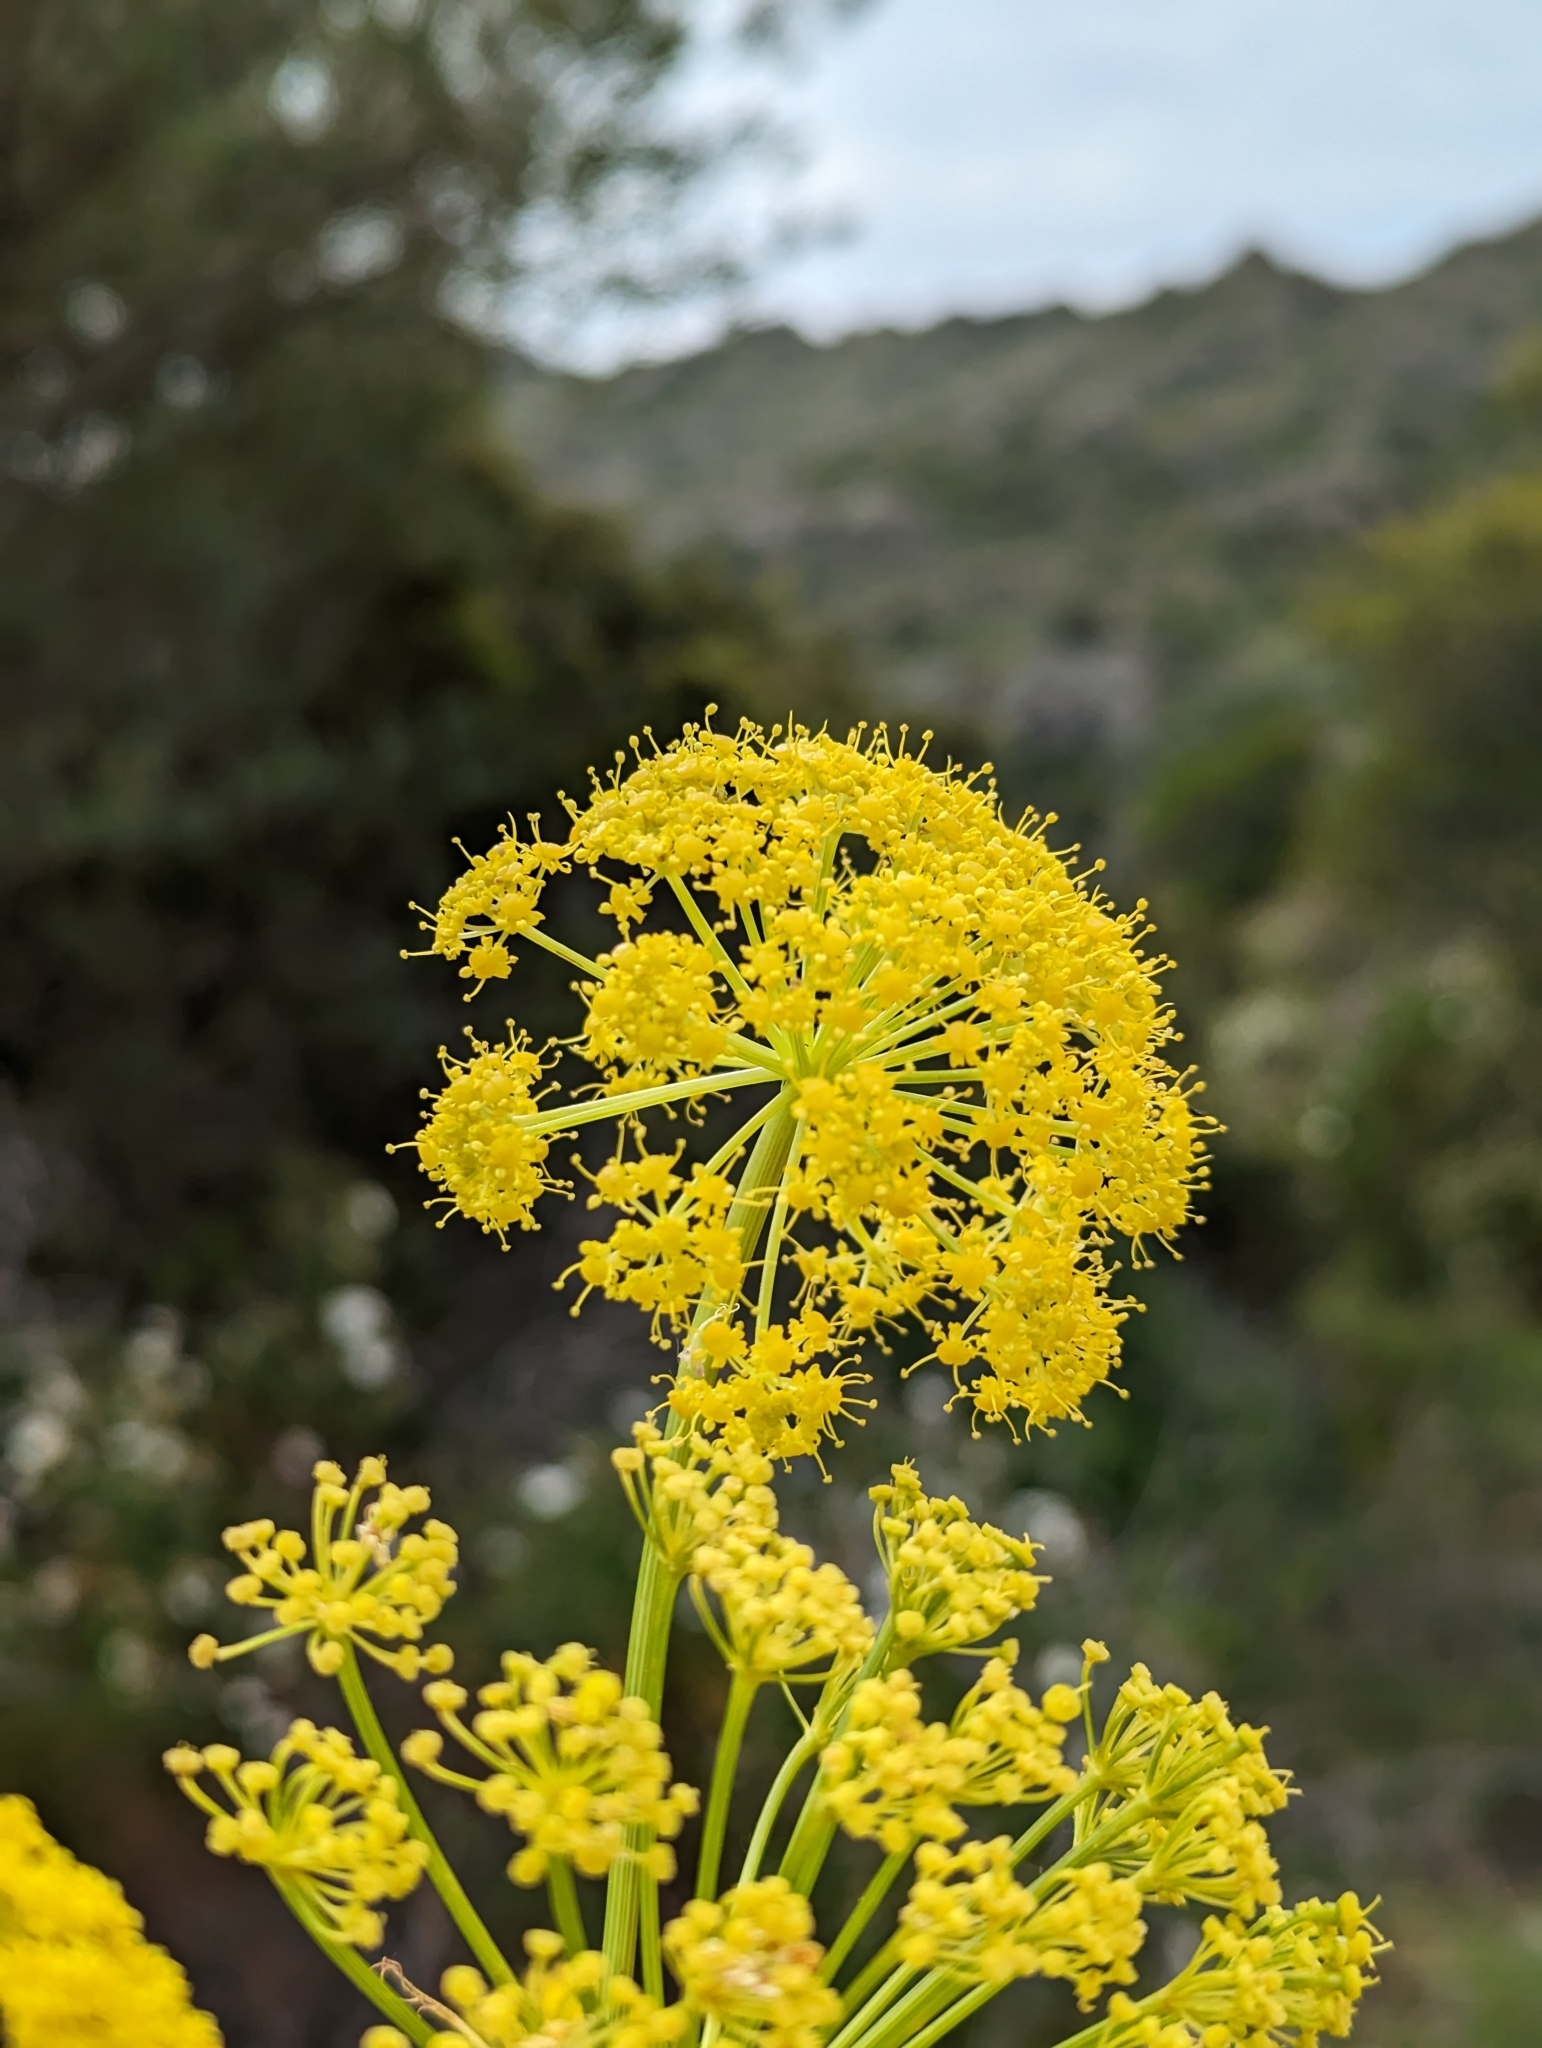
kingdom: Plantae
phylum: Tracheophyta
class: Magnoliopsida
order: Apiales
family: Apiaceae
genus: Ferula
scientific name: Ferula communis
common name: Giant fennel
